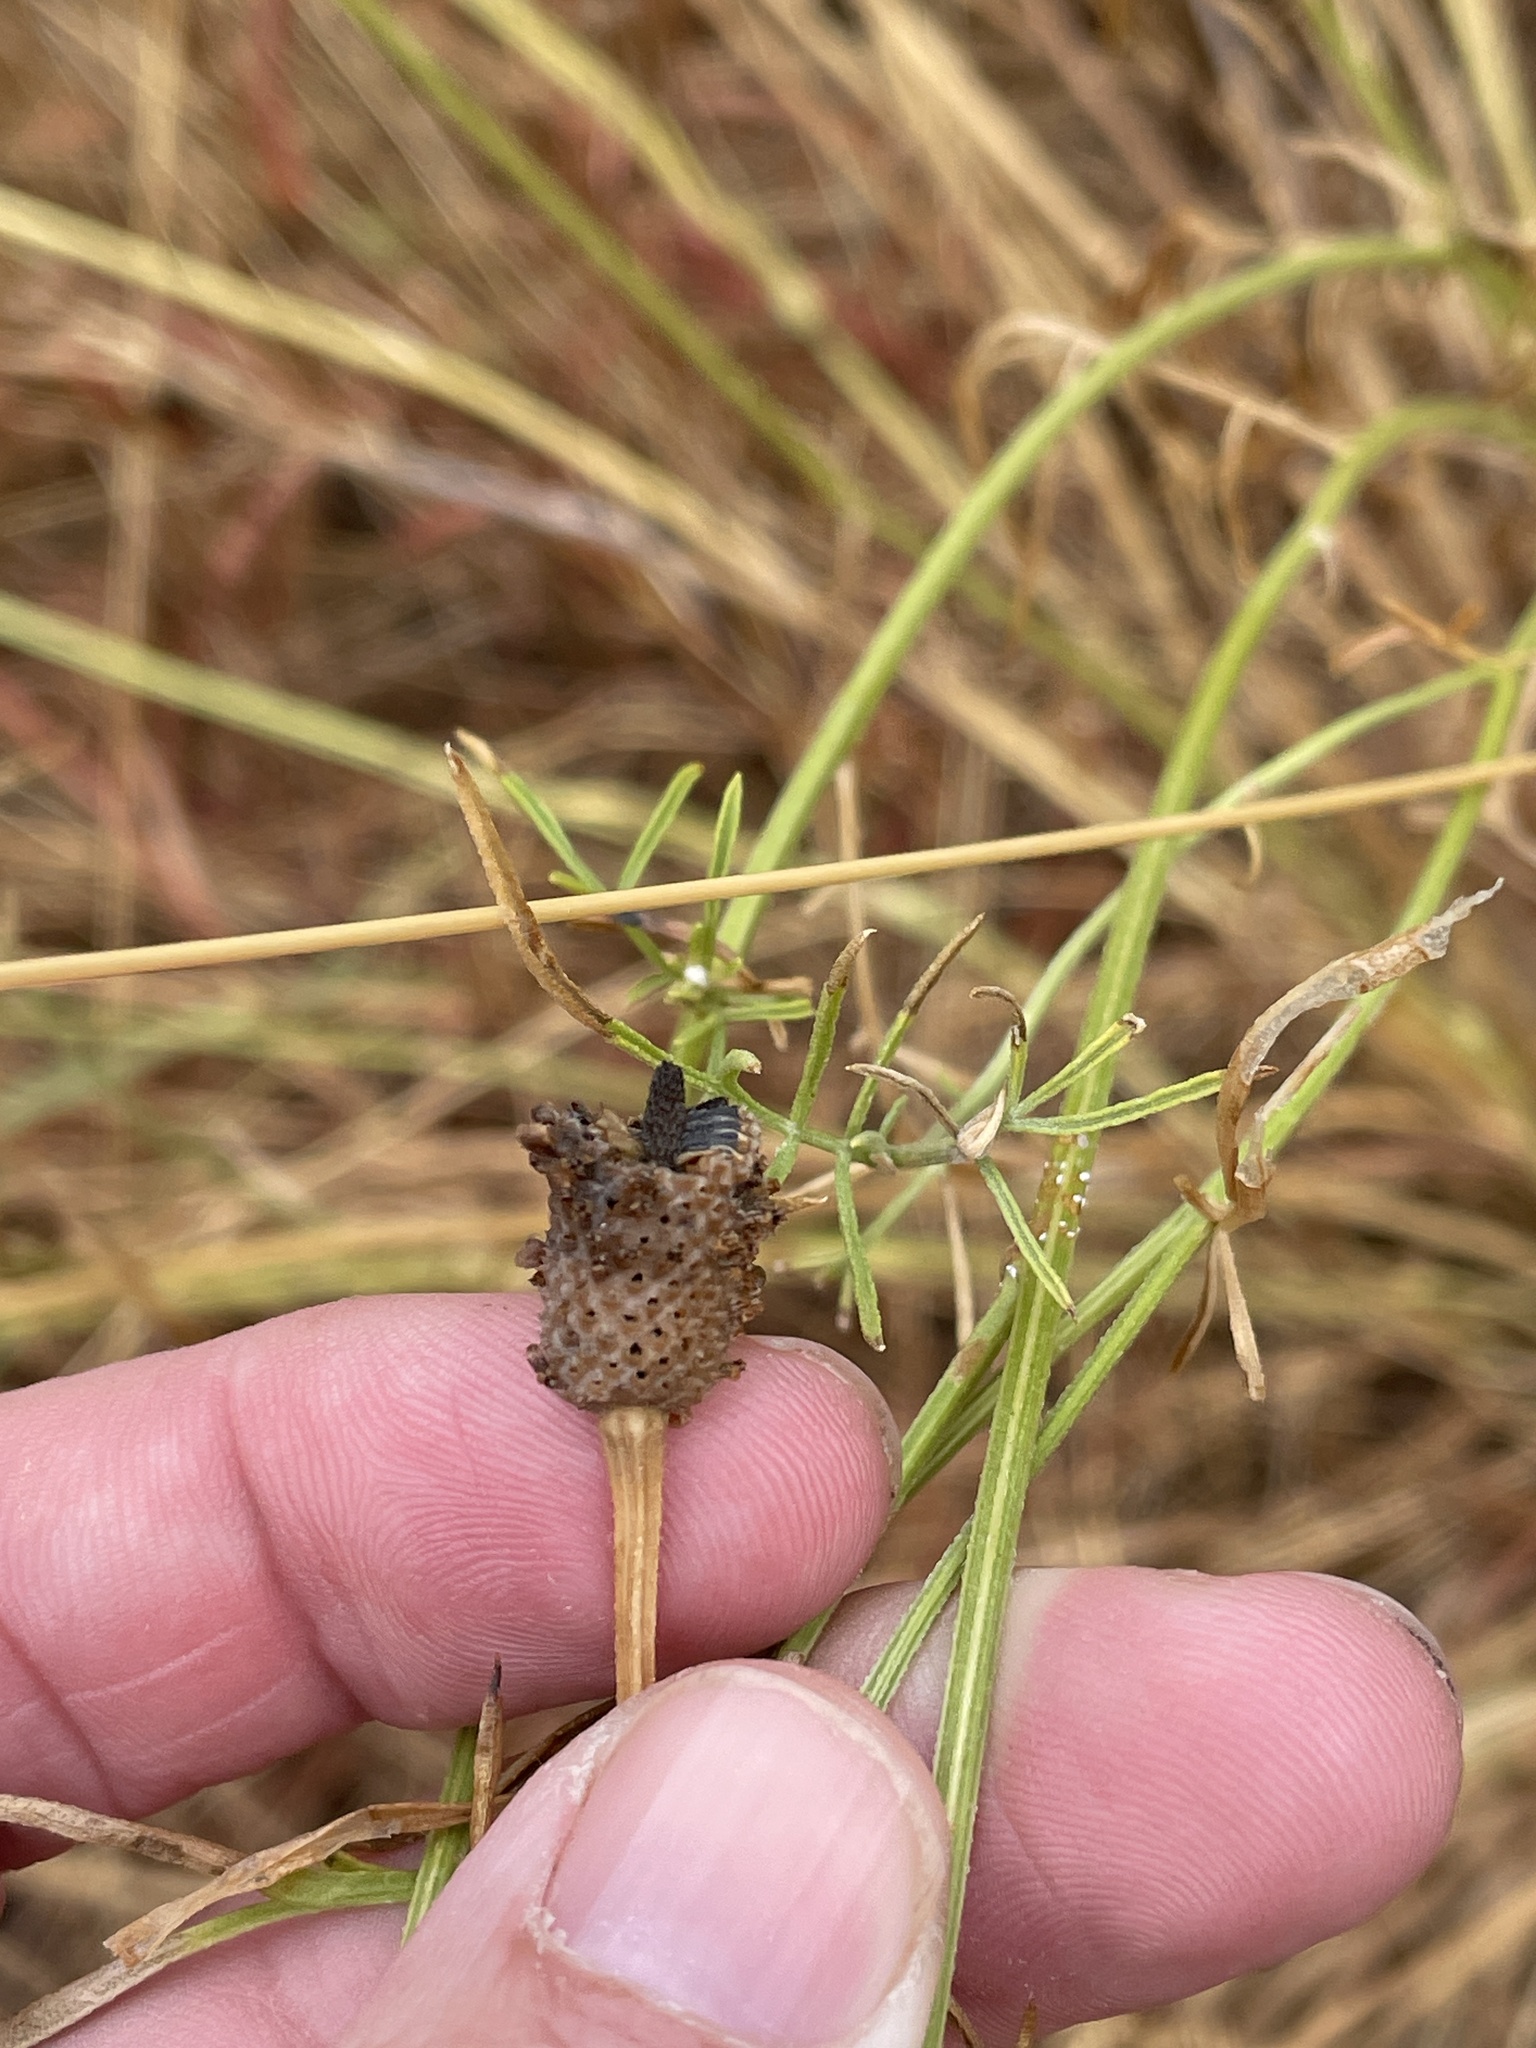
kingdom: Plantae
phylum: Tracheophyta
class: Magnoliopsida
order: Asterales
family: Asteraceae
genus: Ratibida
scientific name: Ratibida columnifera
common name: Prairie coneflower
